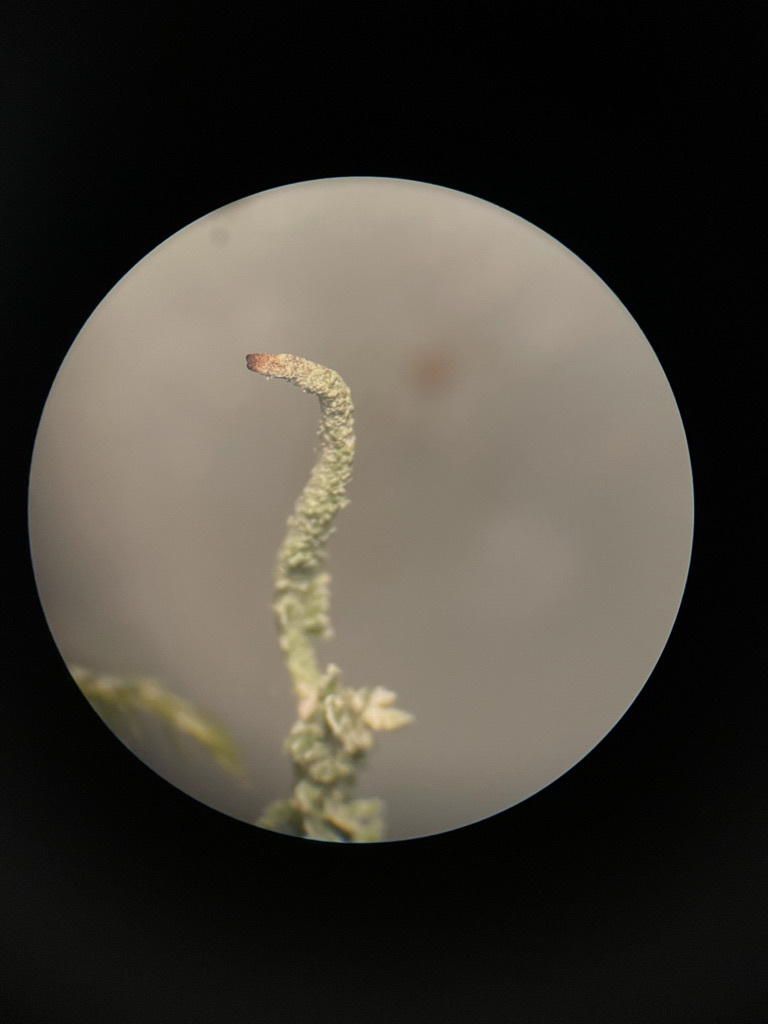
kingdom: Fungi
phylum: Ascomycota
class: Lecanoromycetes
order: Lecanorales
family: Cladoniaceae
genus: Cladonia
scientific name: Cladonia squamosa
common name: Dragon horn
